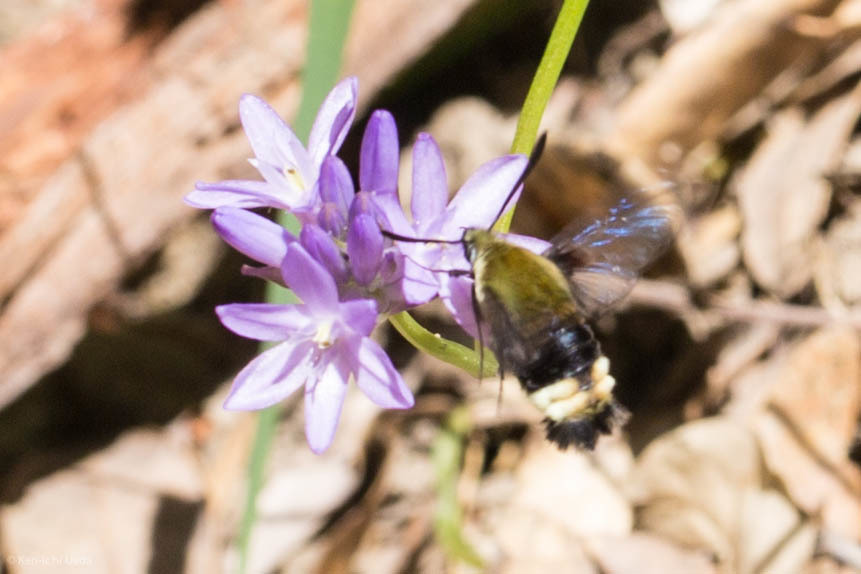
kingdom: Animalia
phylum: Arthropoda
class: Insecta
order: Lepidoptera
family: Sphingidae
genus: Hemaris
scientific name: Hemaris thetis
